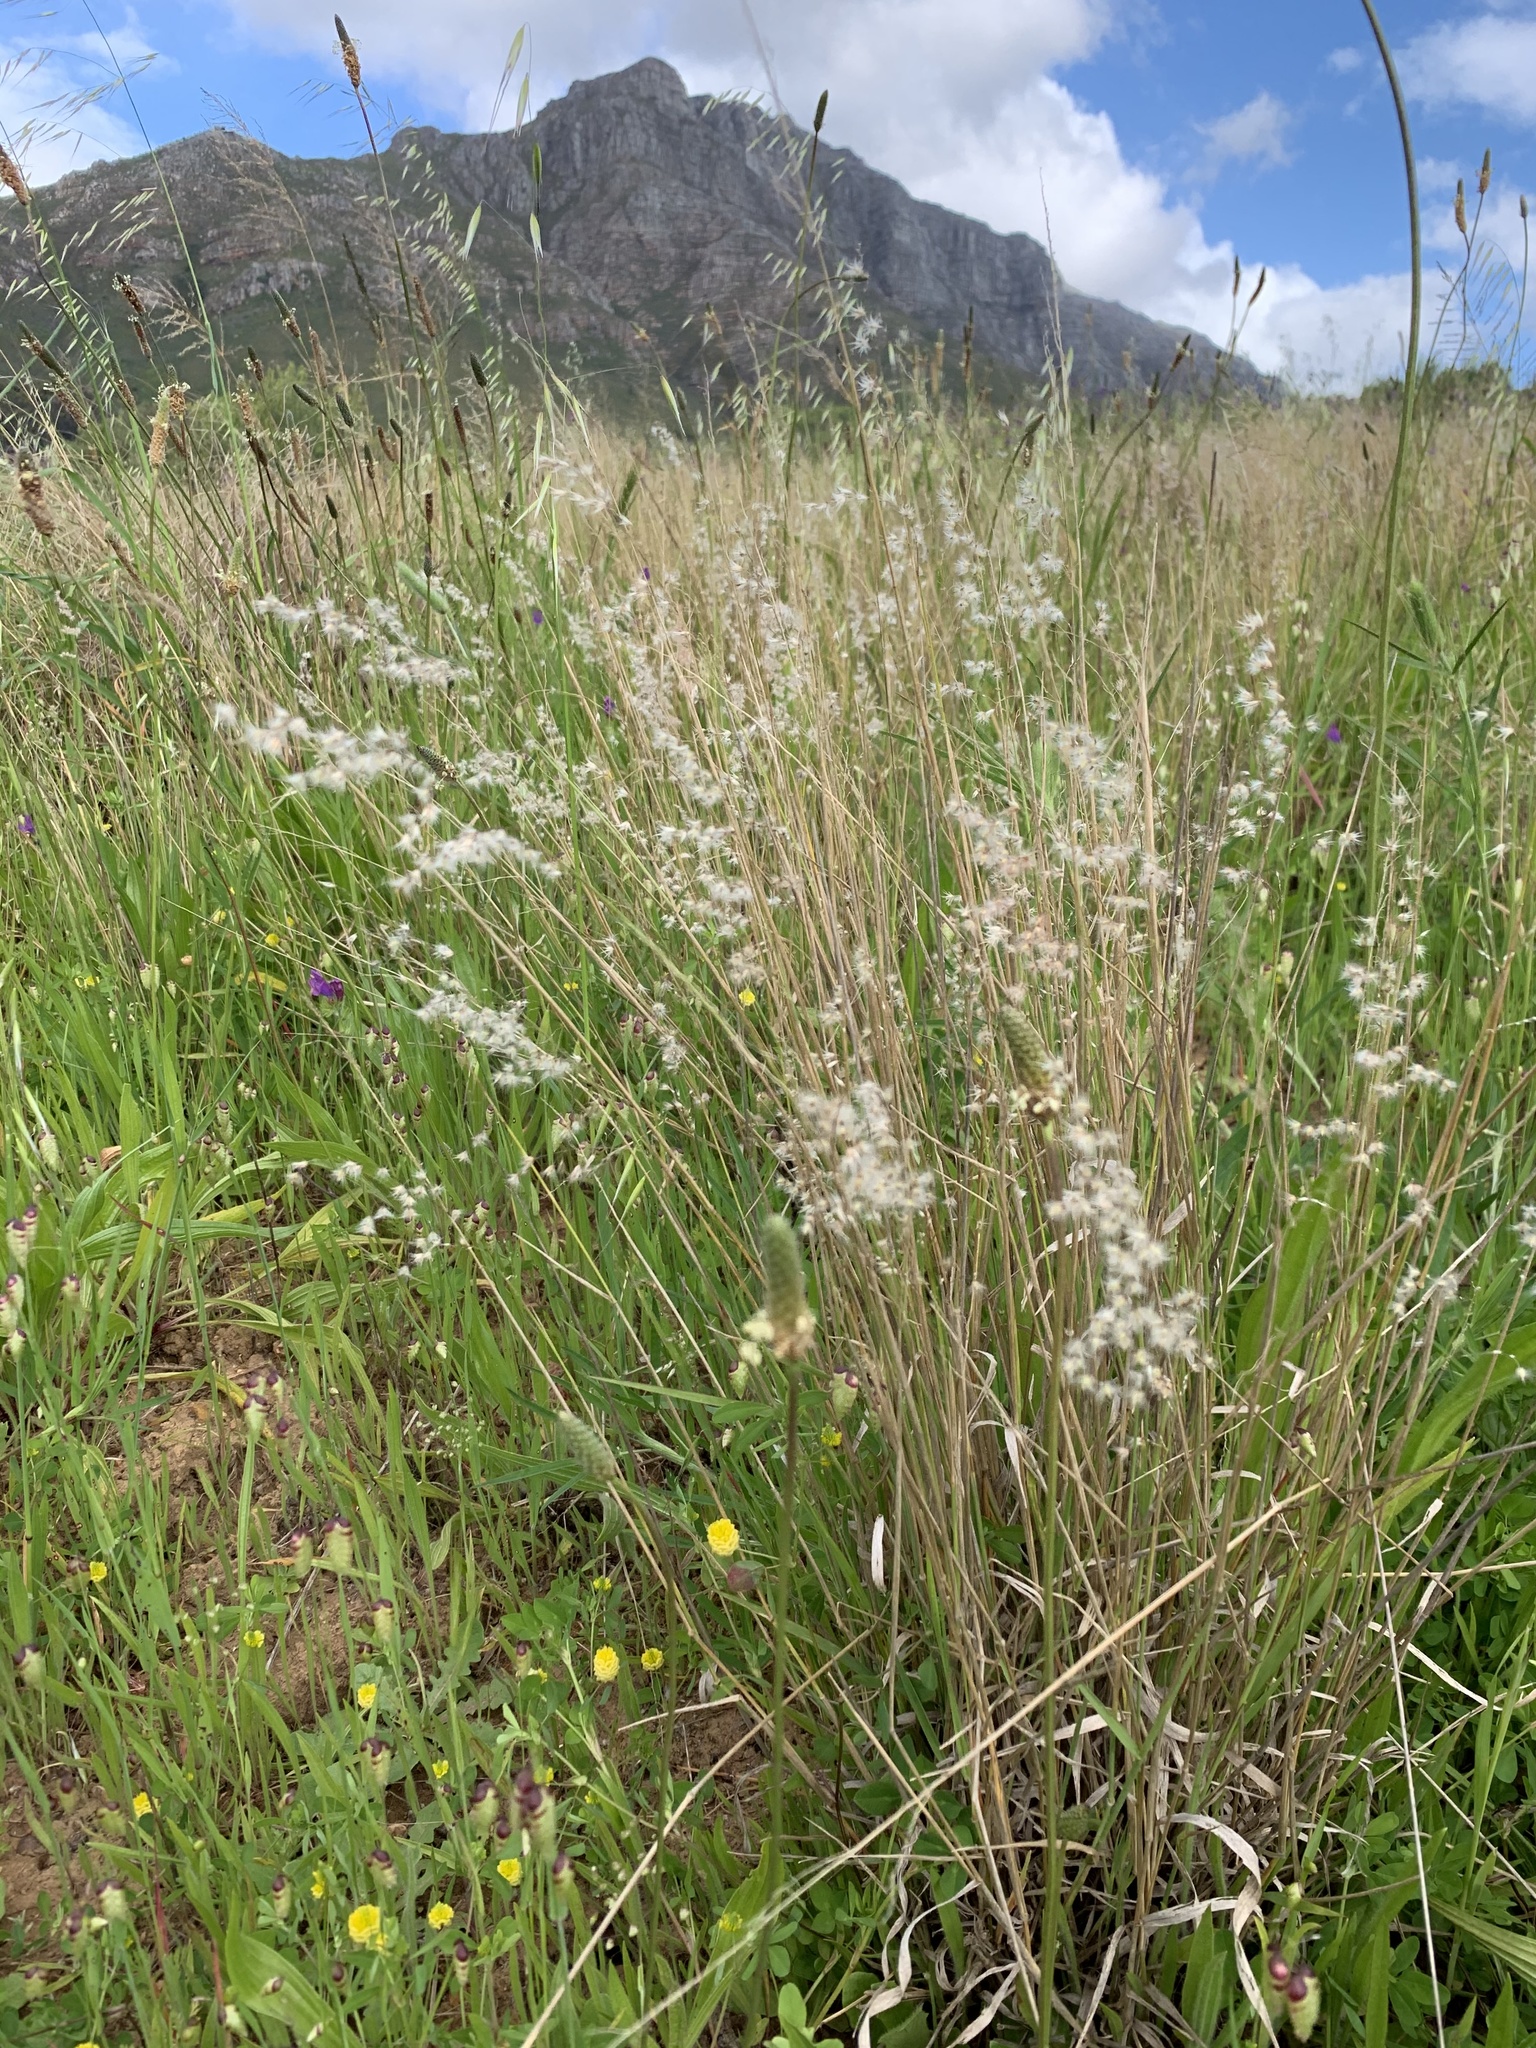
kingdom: Plantae
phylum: Tracheophyta
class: Liliopsida
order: Poales
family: Poaceae
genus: Melinis
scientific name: Melinis repens
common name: Rose natal grass
